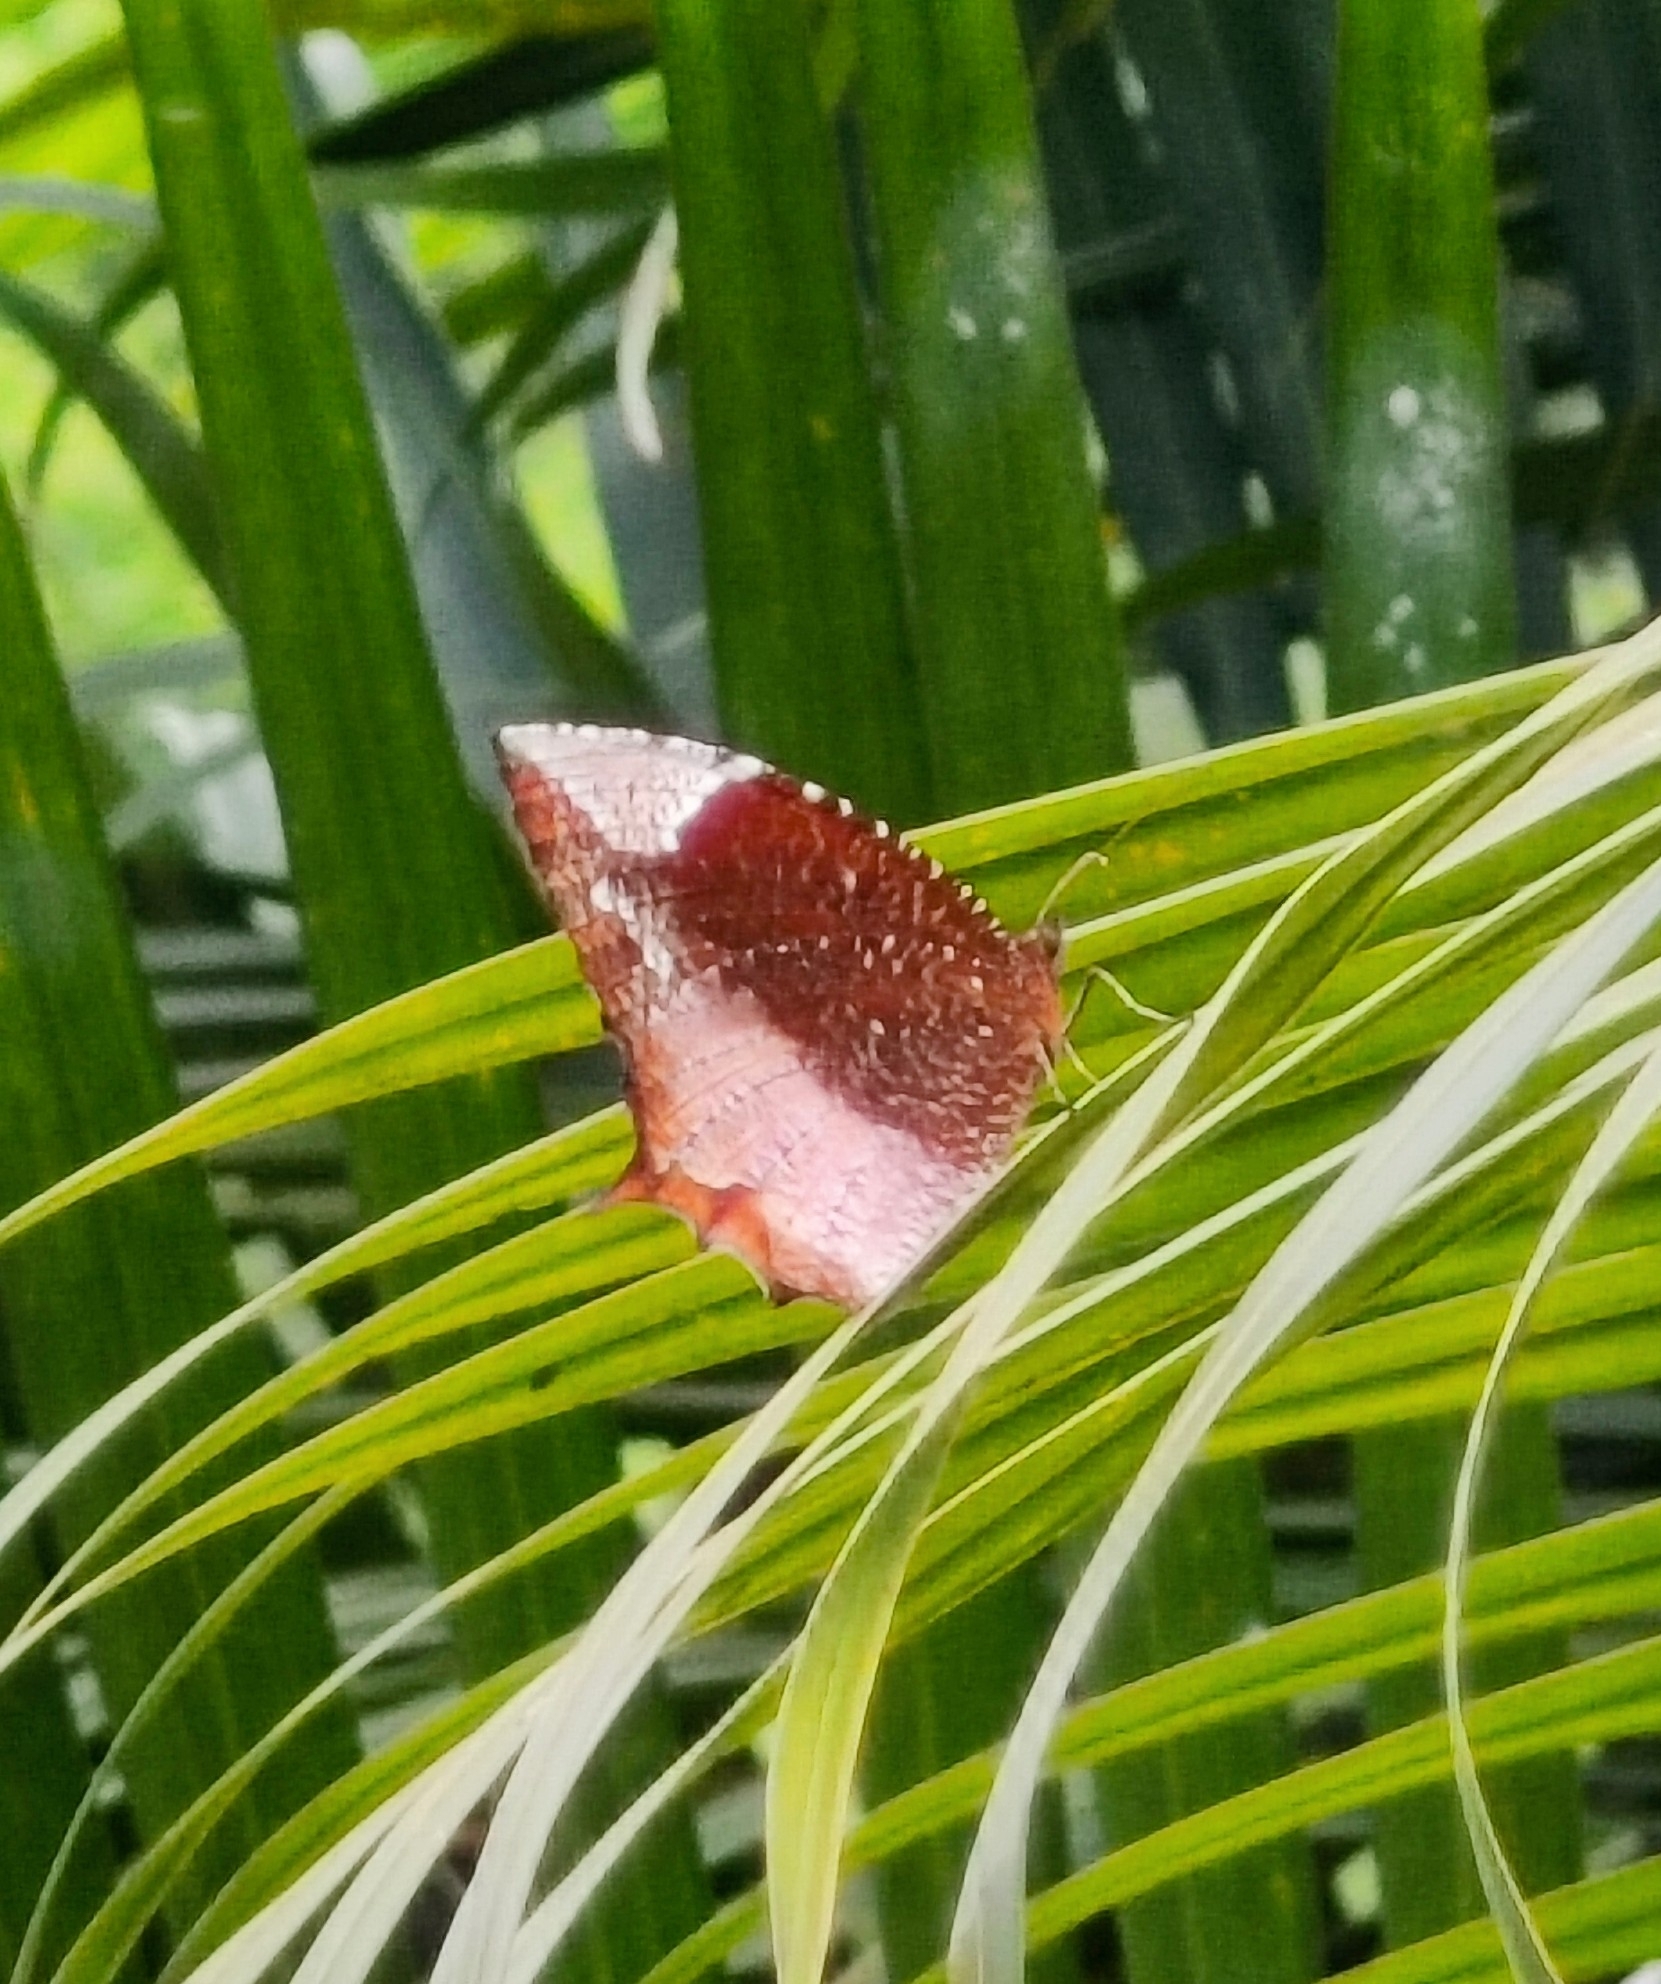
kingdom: Animalia
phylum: Arthropoda
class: Insecta
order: Lepidoptera
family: Nymphalidae
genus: Elymnias
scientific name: Elymnias caudata
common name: Tailed palmfly
